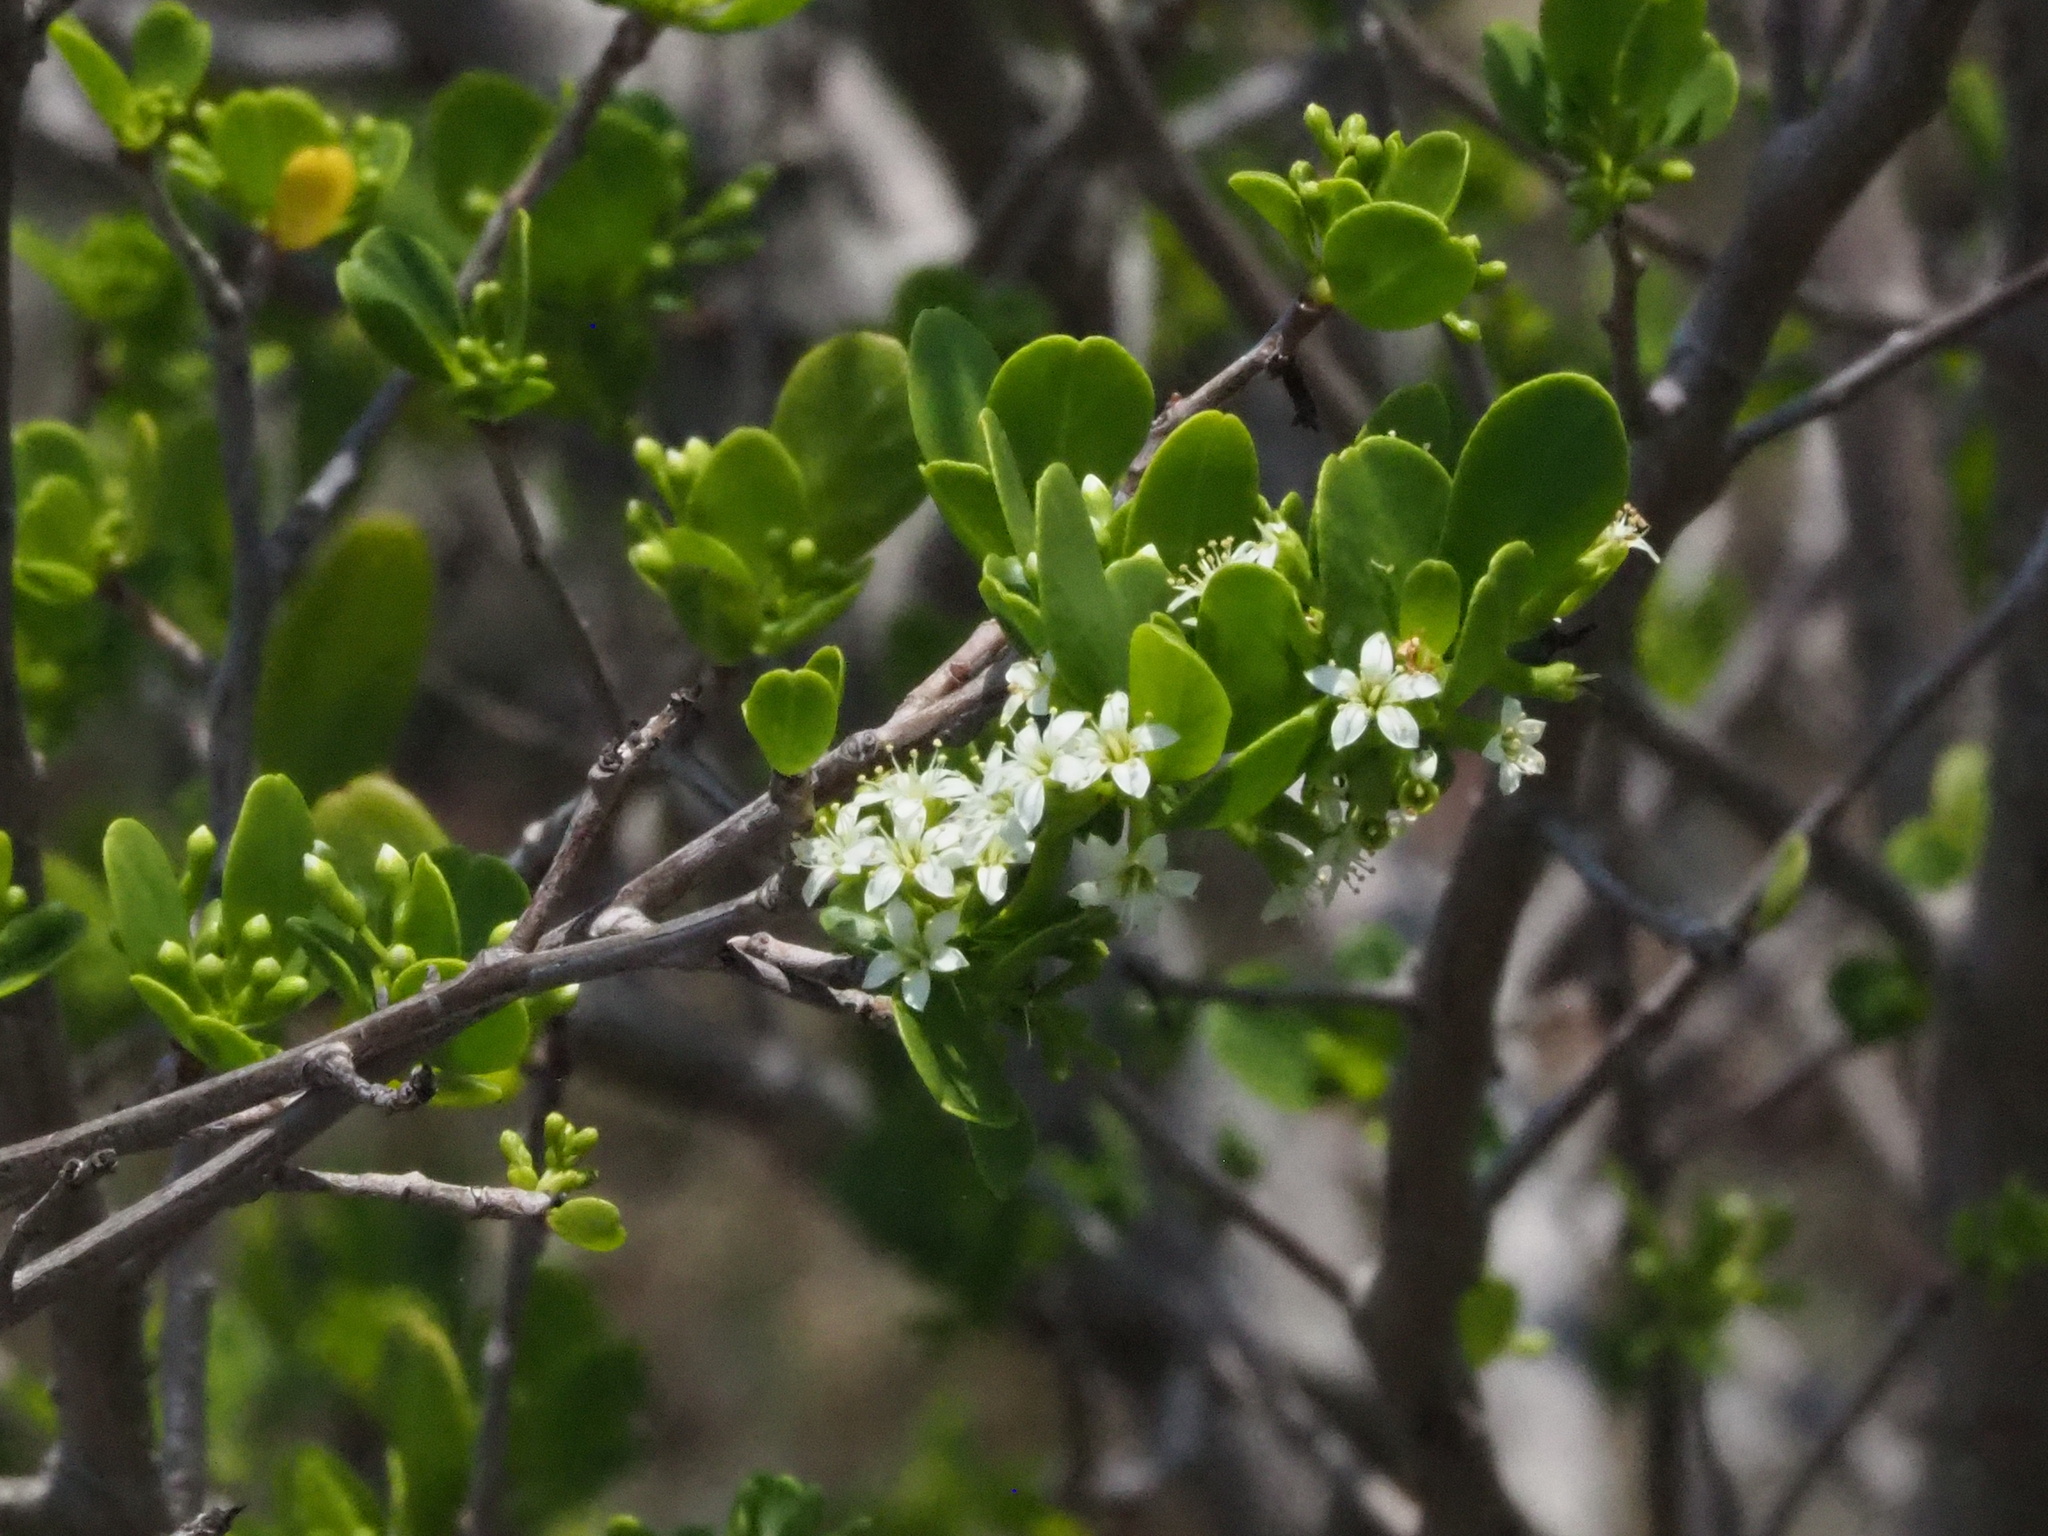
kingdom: Plantae
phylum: Tracheophyta
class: Magnoliopsida
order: Myrtales
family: Combretaceae
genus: Lumnitzera
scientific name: Lumnitzera racemosa
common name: White-flowered black mangrove
